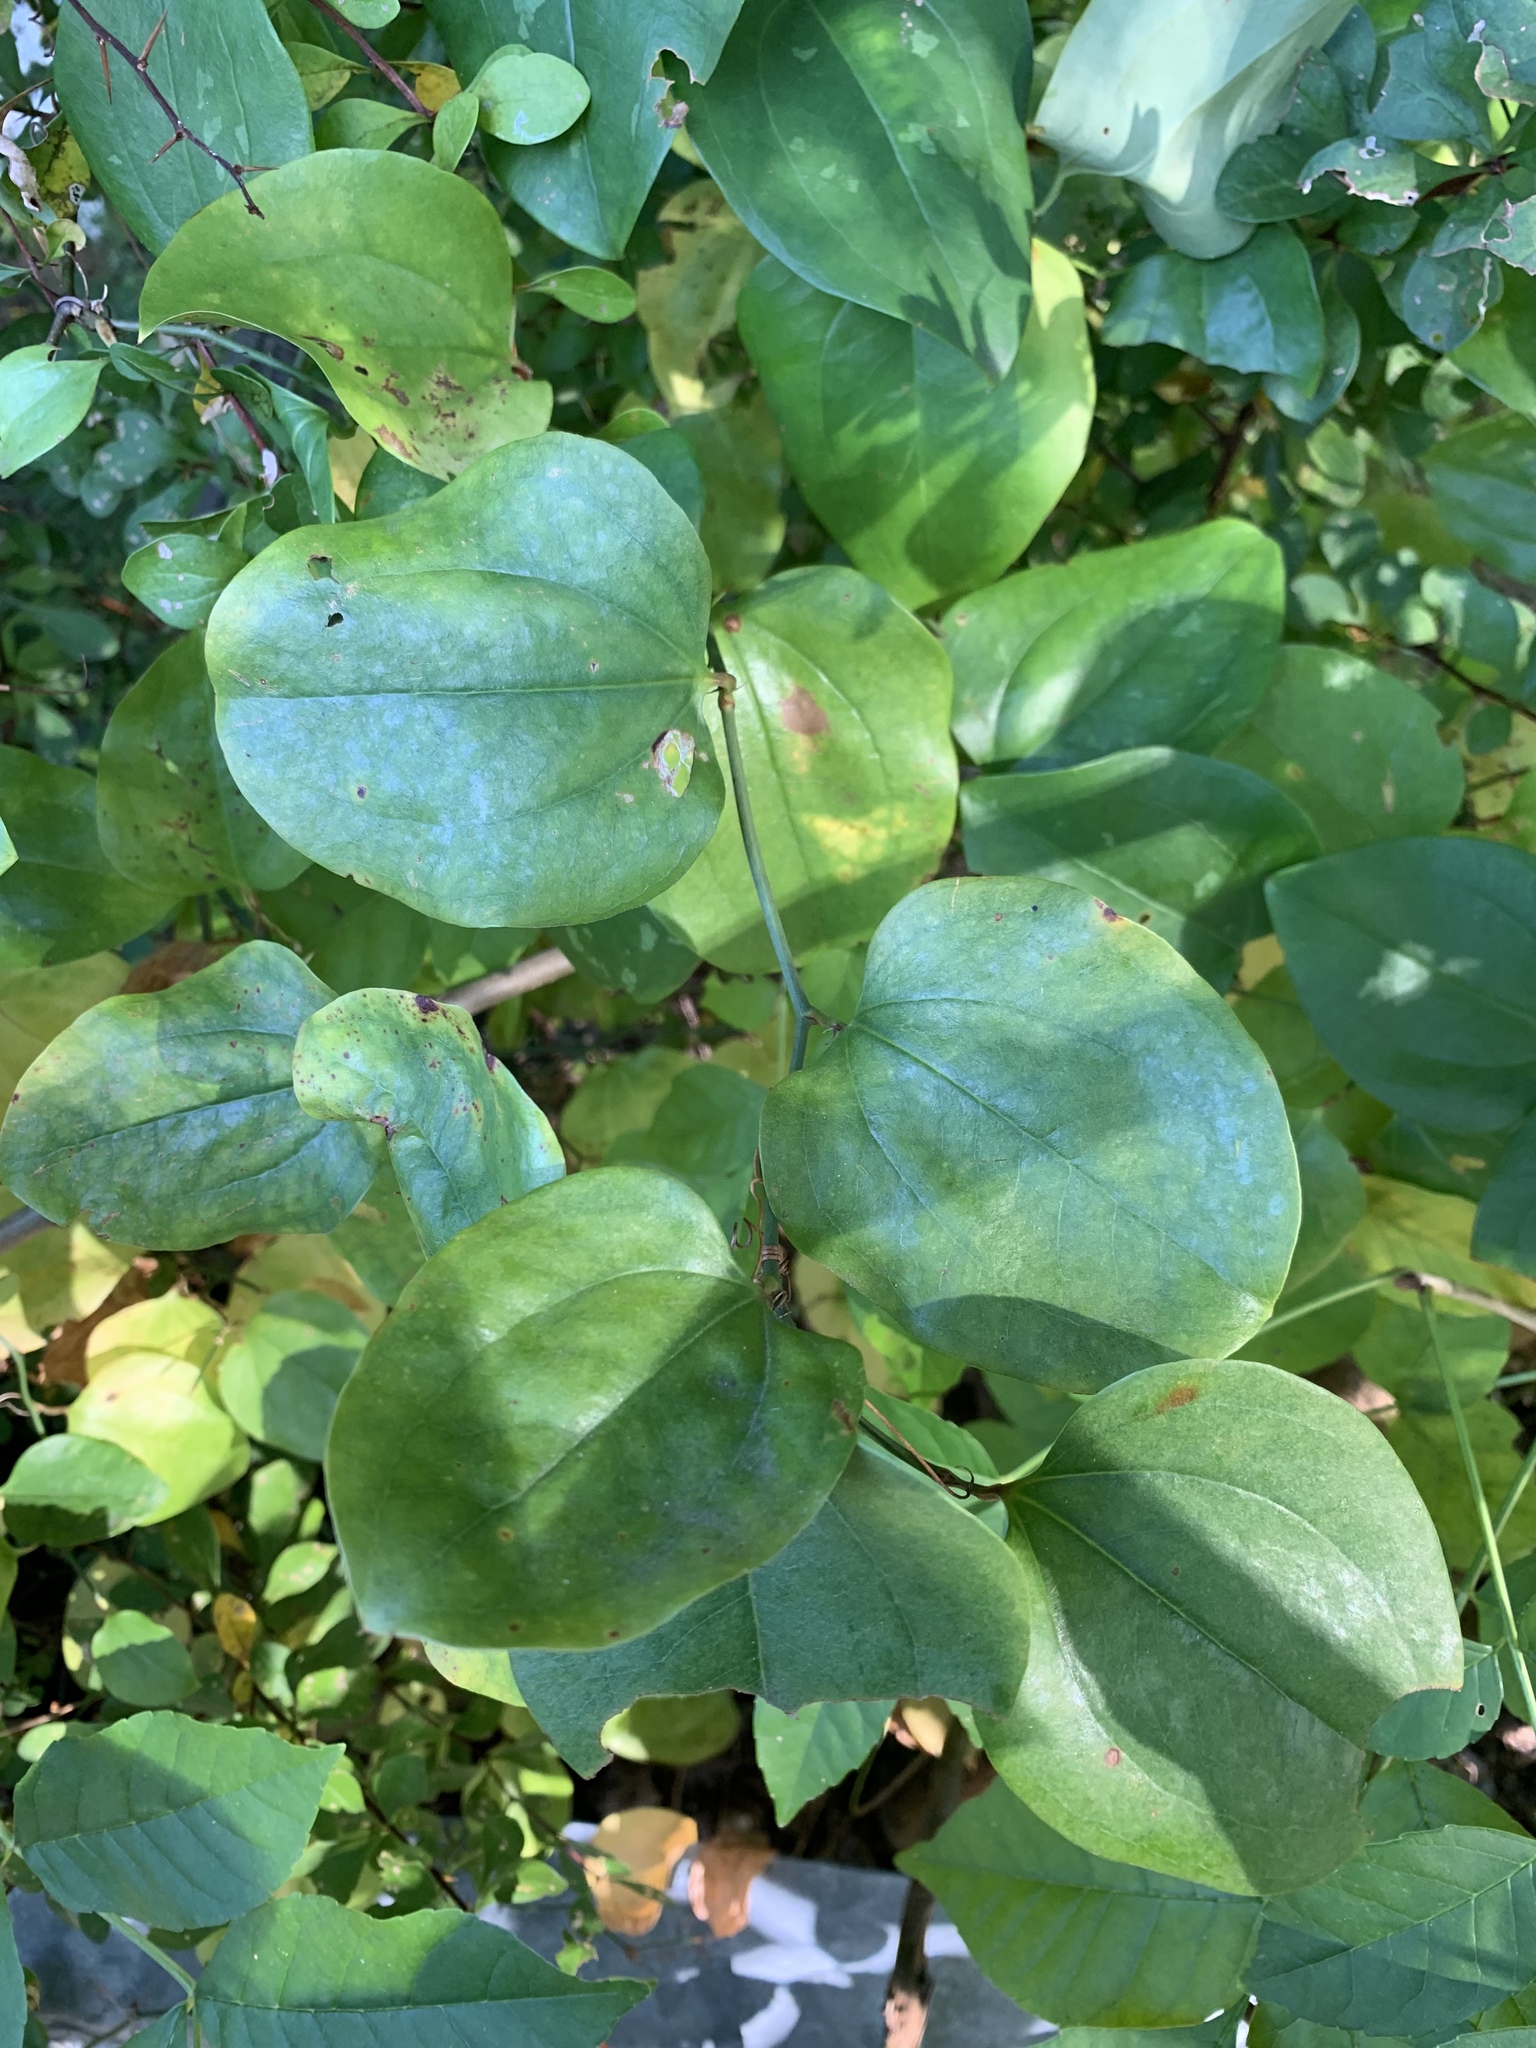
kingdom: Plantae
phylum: Tracheophyta
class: Liliopsida
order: Liliales
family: Smilacaceae
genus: Smilax
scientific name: Smilax rotundifolia
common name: Bullbriar
